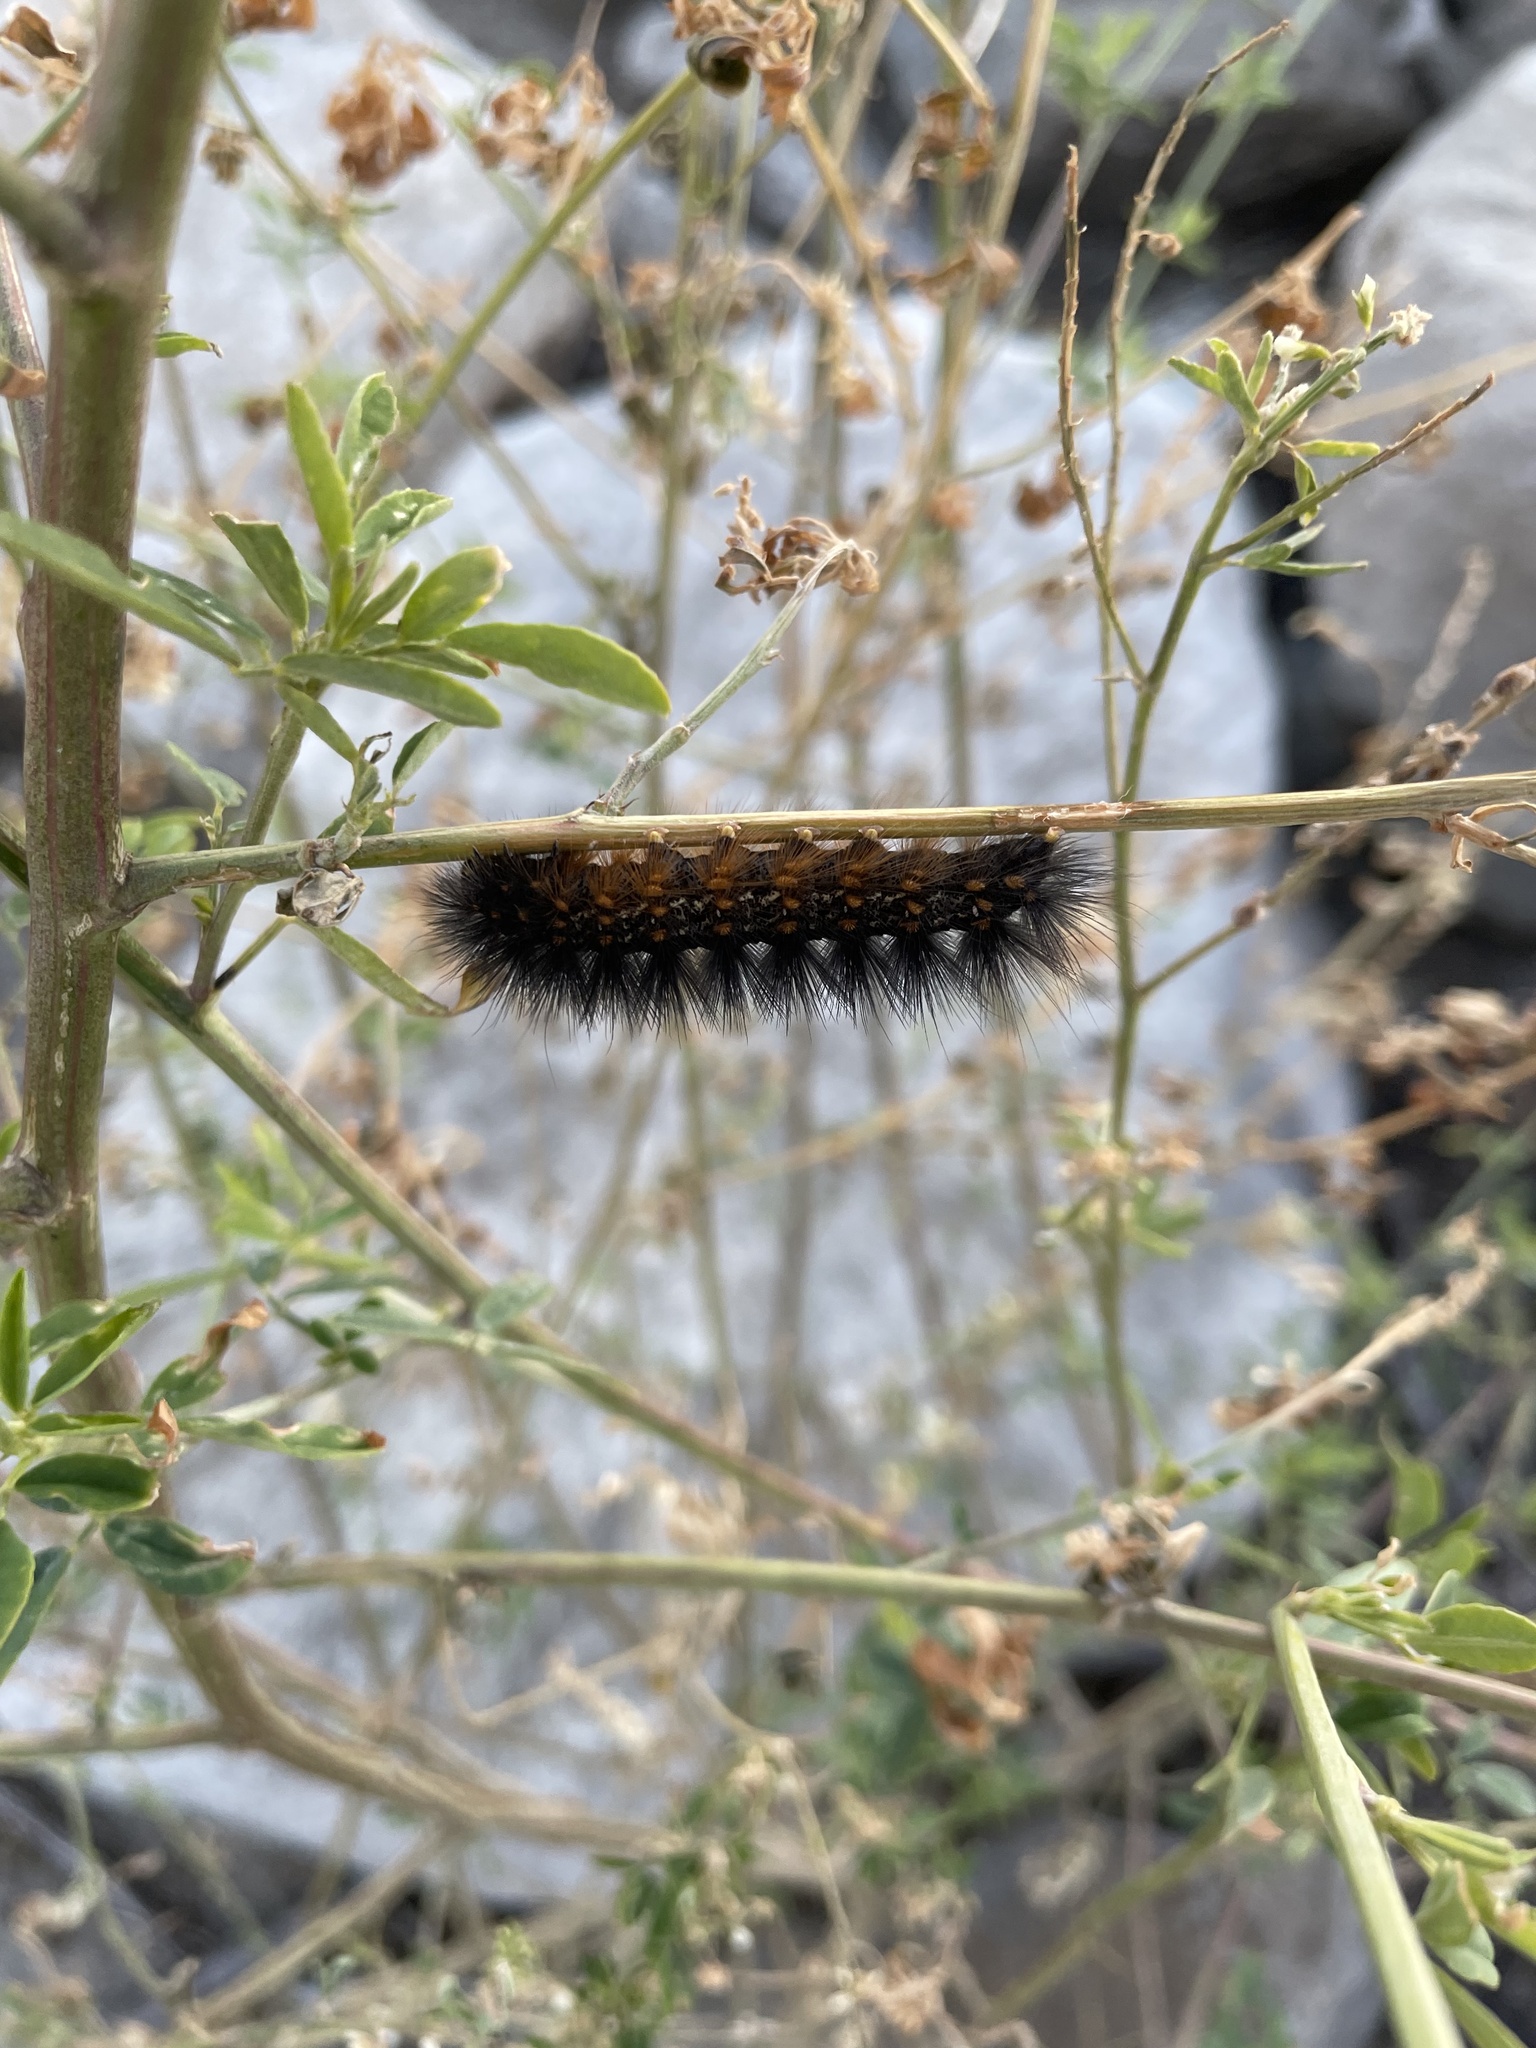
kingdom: Animalia
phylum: Arthropoda
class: Insecta
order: Lepidoptera
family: Erebidae
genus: Estigmene
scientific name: Estigmene acrea
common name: Salt marsh moth
